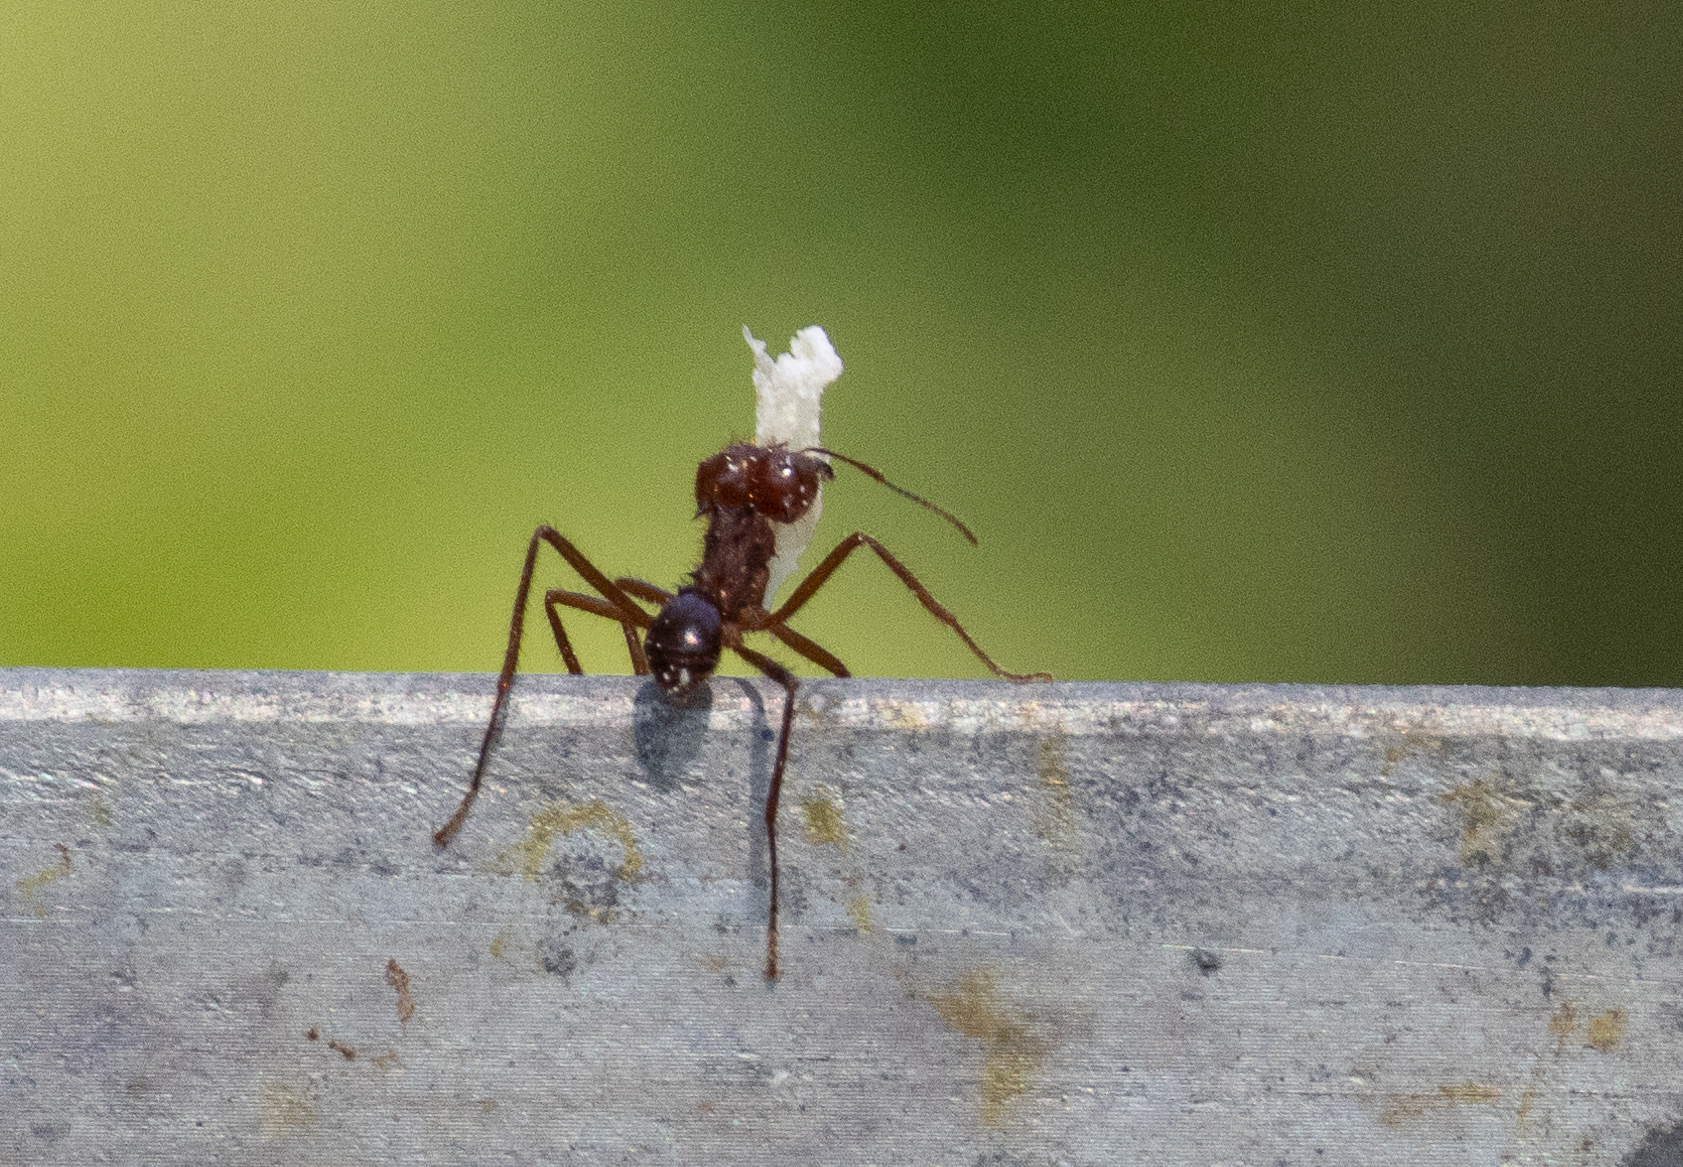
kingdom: Animalia
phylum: Arthropoda
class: Insecta
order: Hymenoptera
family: Formicidae
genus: Atta
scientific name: Atta mexicana
